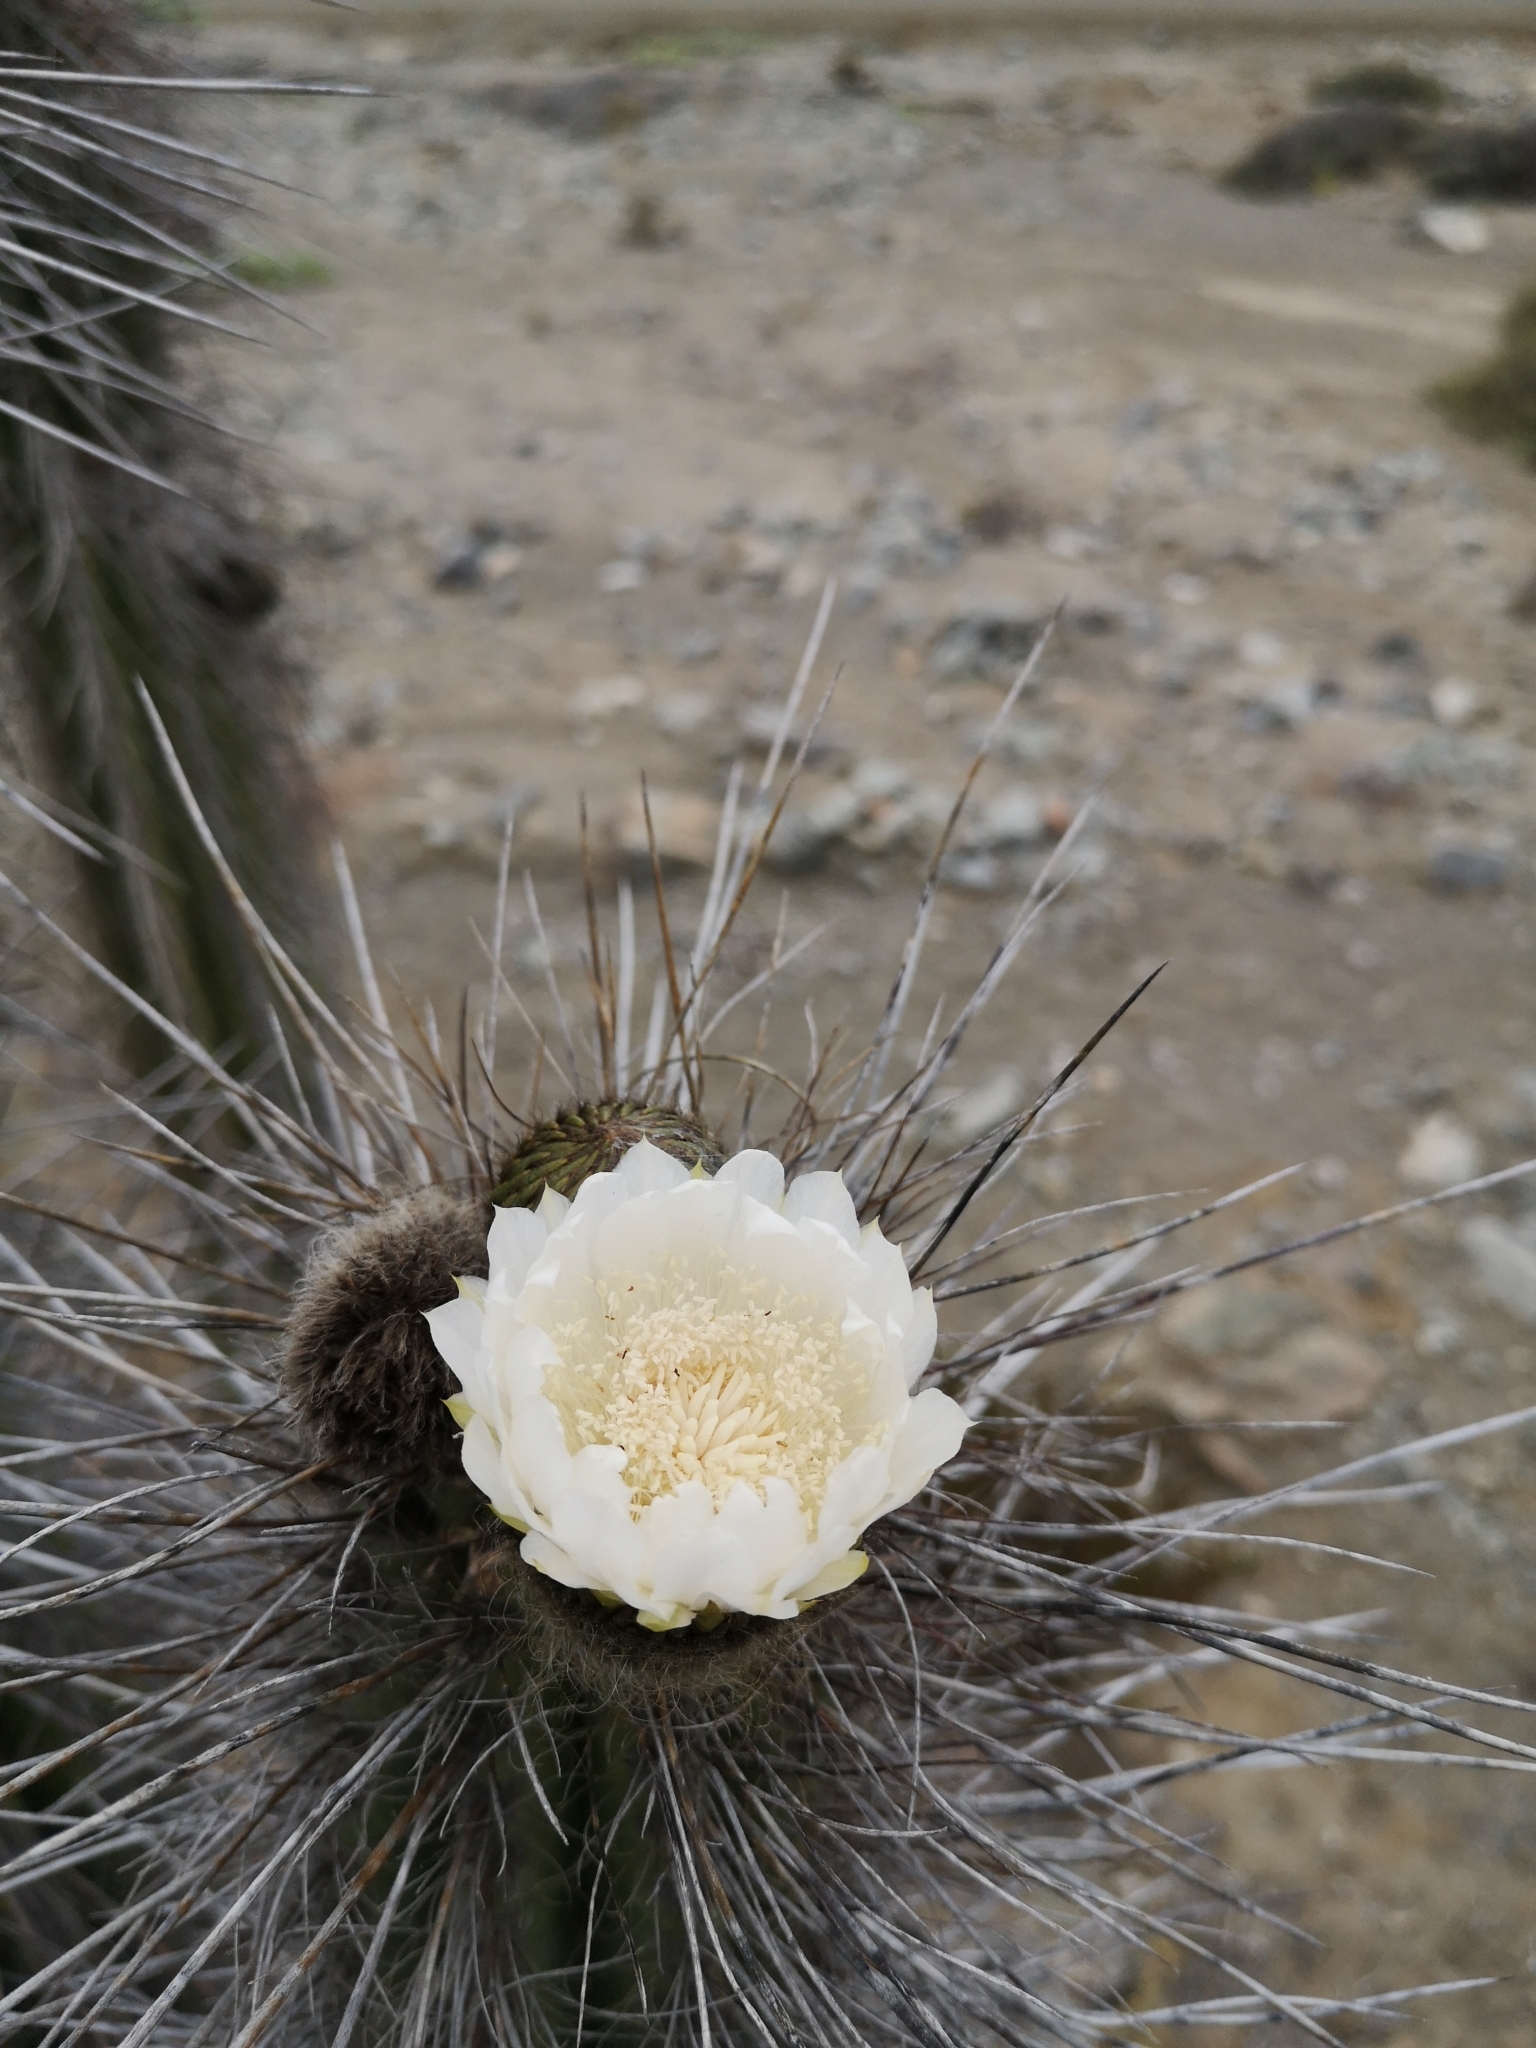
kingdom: Plantae
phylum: Tracheophyta
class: Magnoliopsida
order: Caryophyllales
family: Cactaceae
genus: Eulychnia
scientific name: Eulychnia iquiquensis
